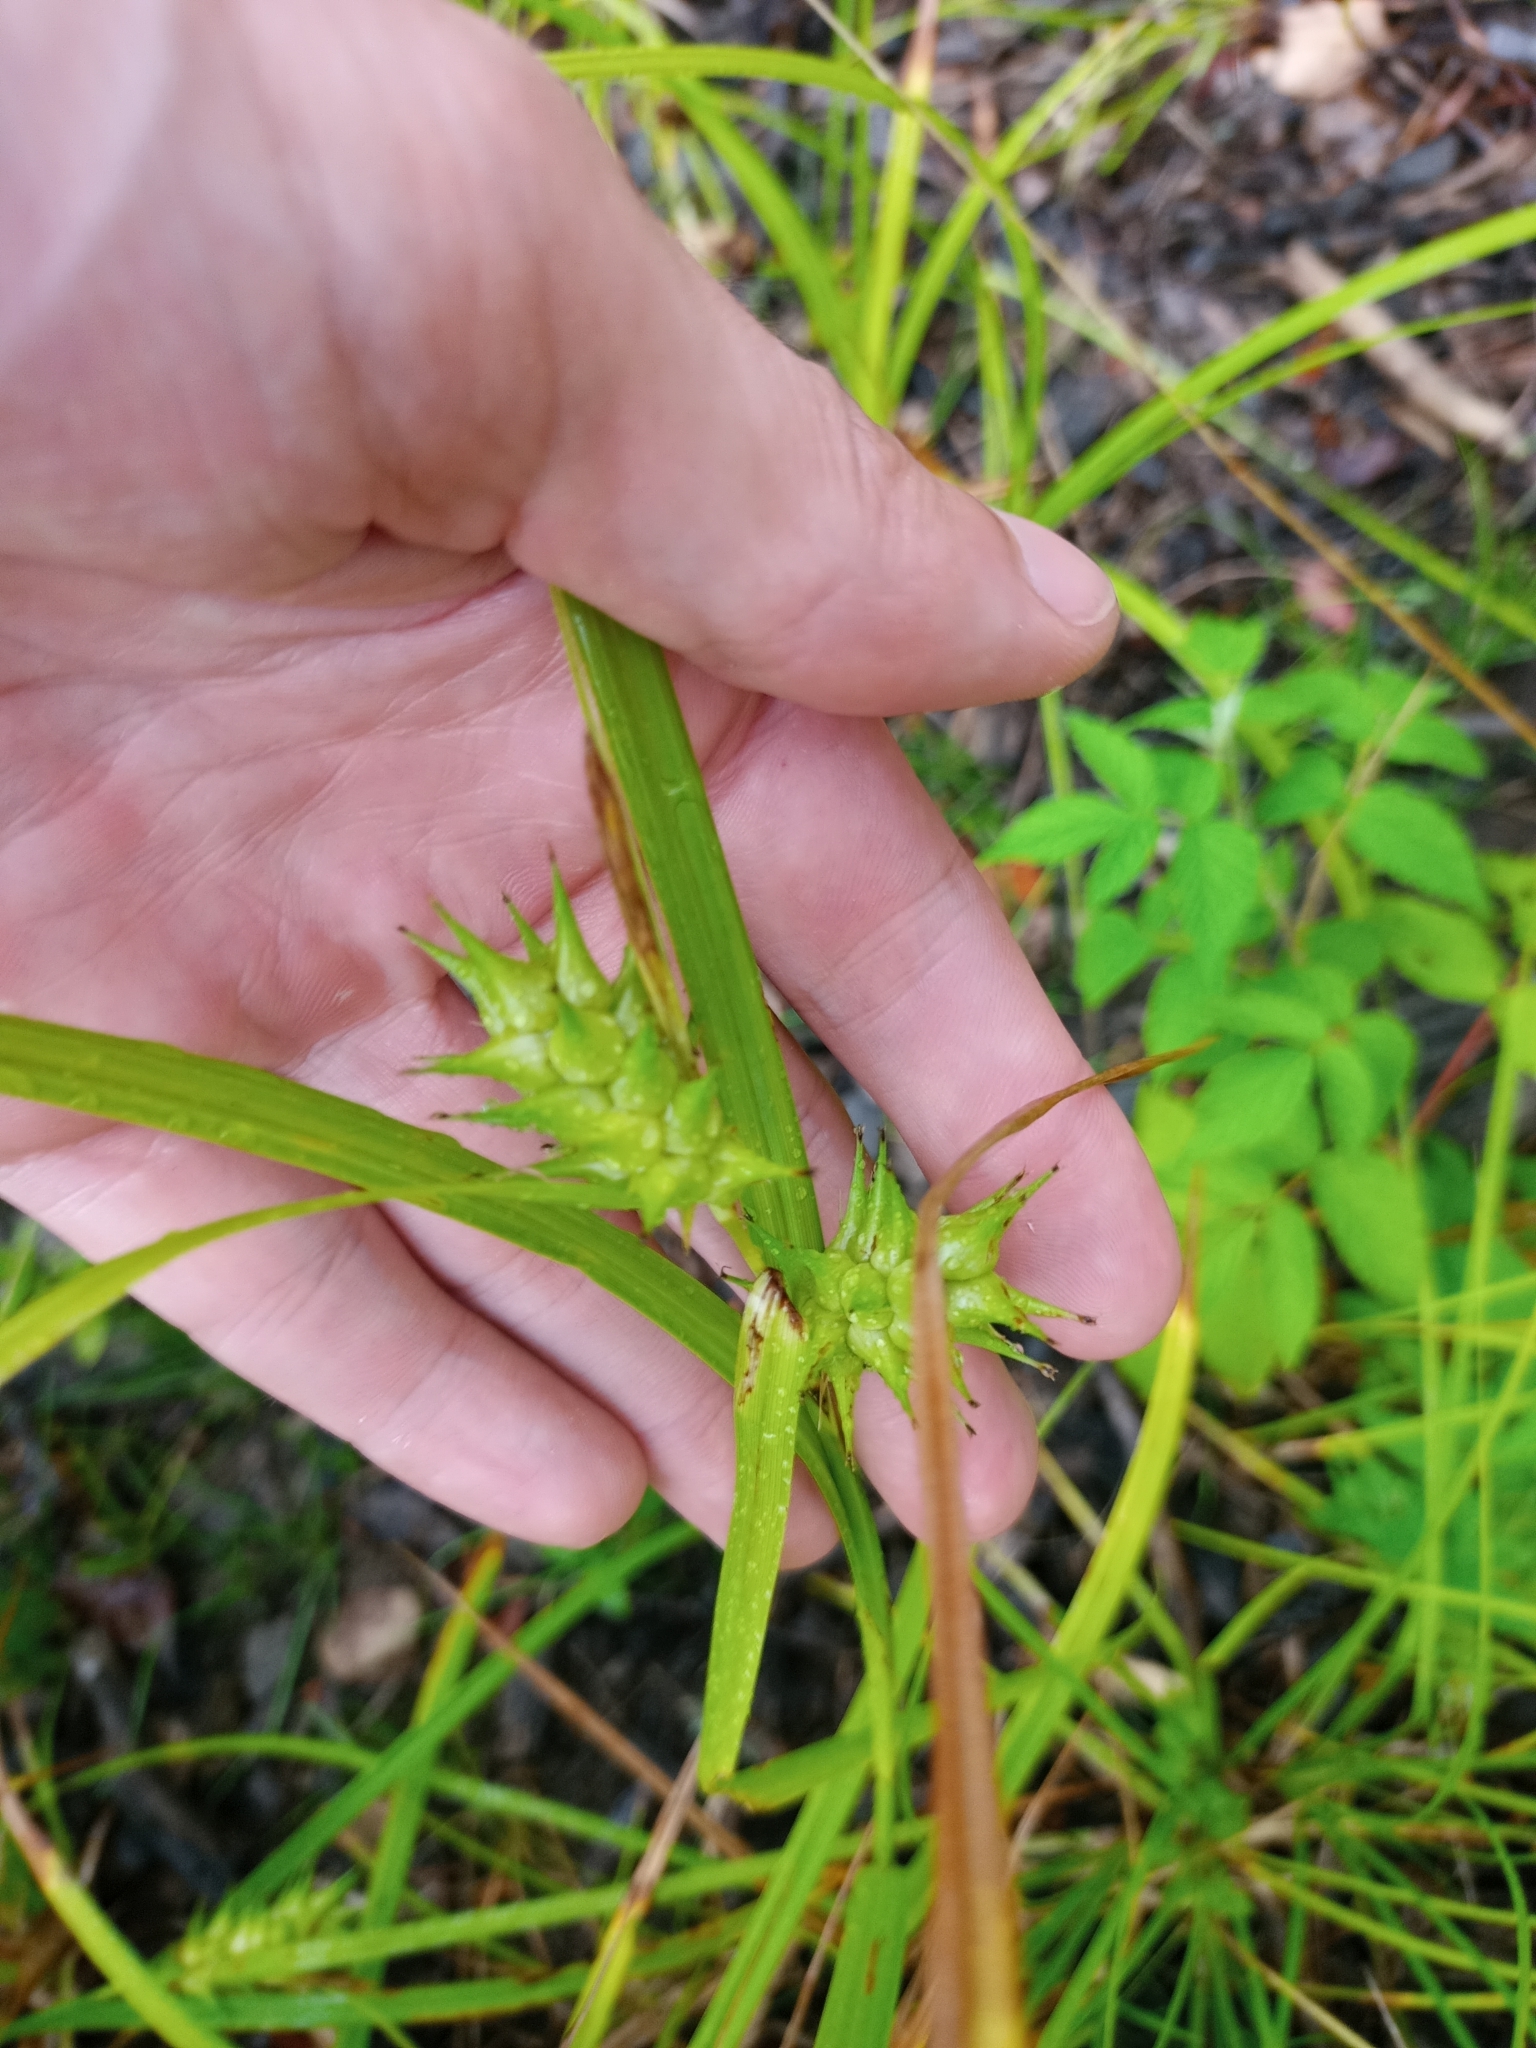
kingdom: Plantae
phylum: Tracheophyta
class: Liliopsida
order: Poales
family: Cyperaceae
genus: Carex
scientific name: Carex lupulina
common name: Hop sedge
